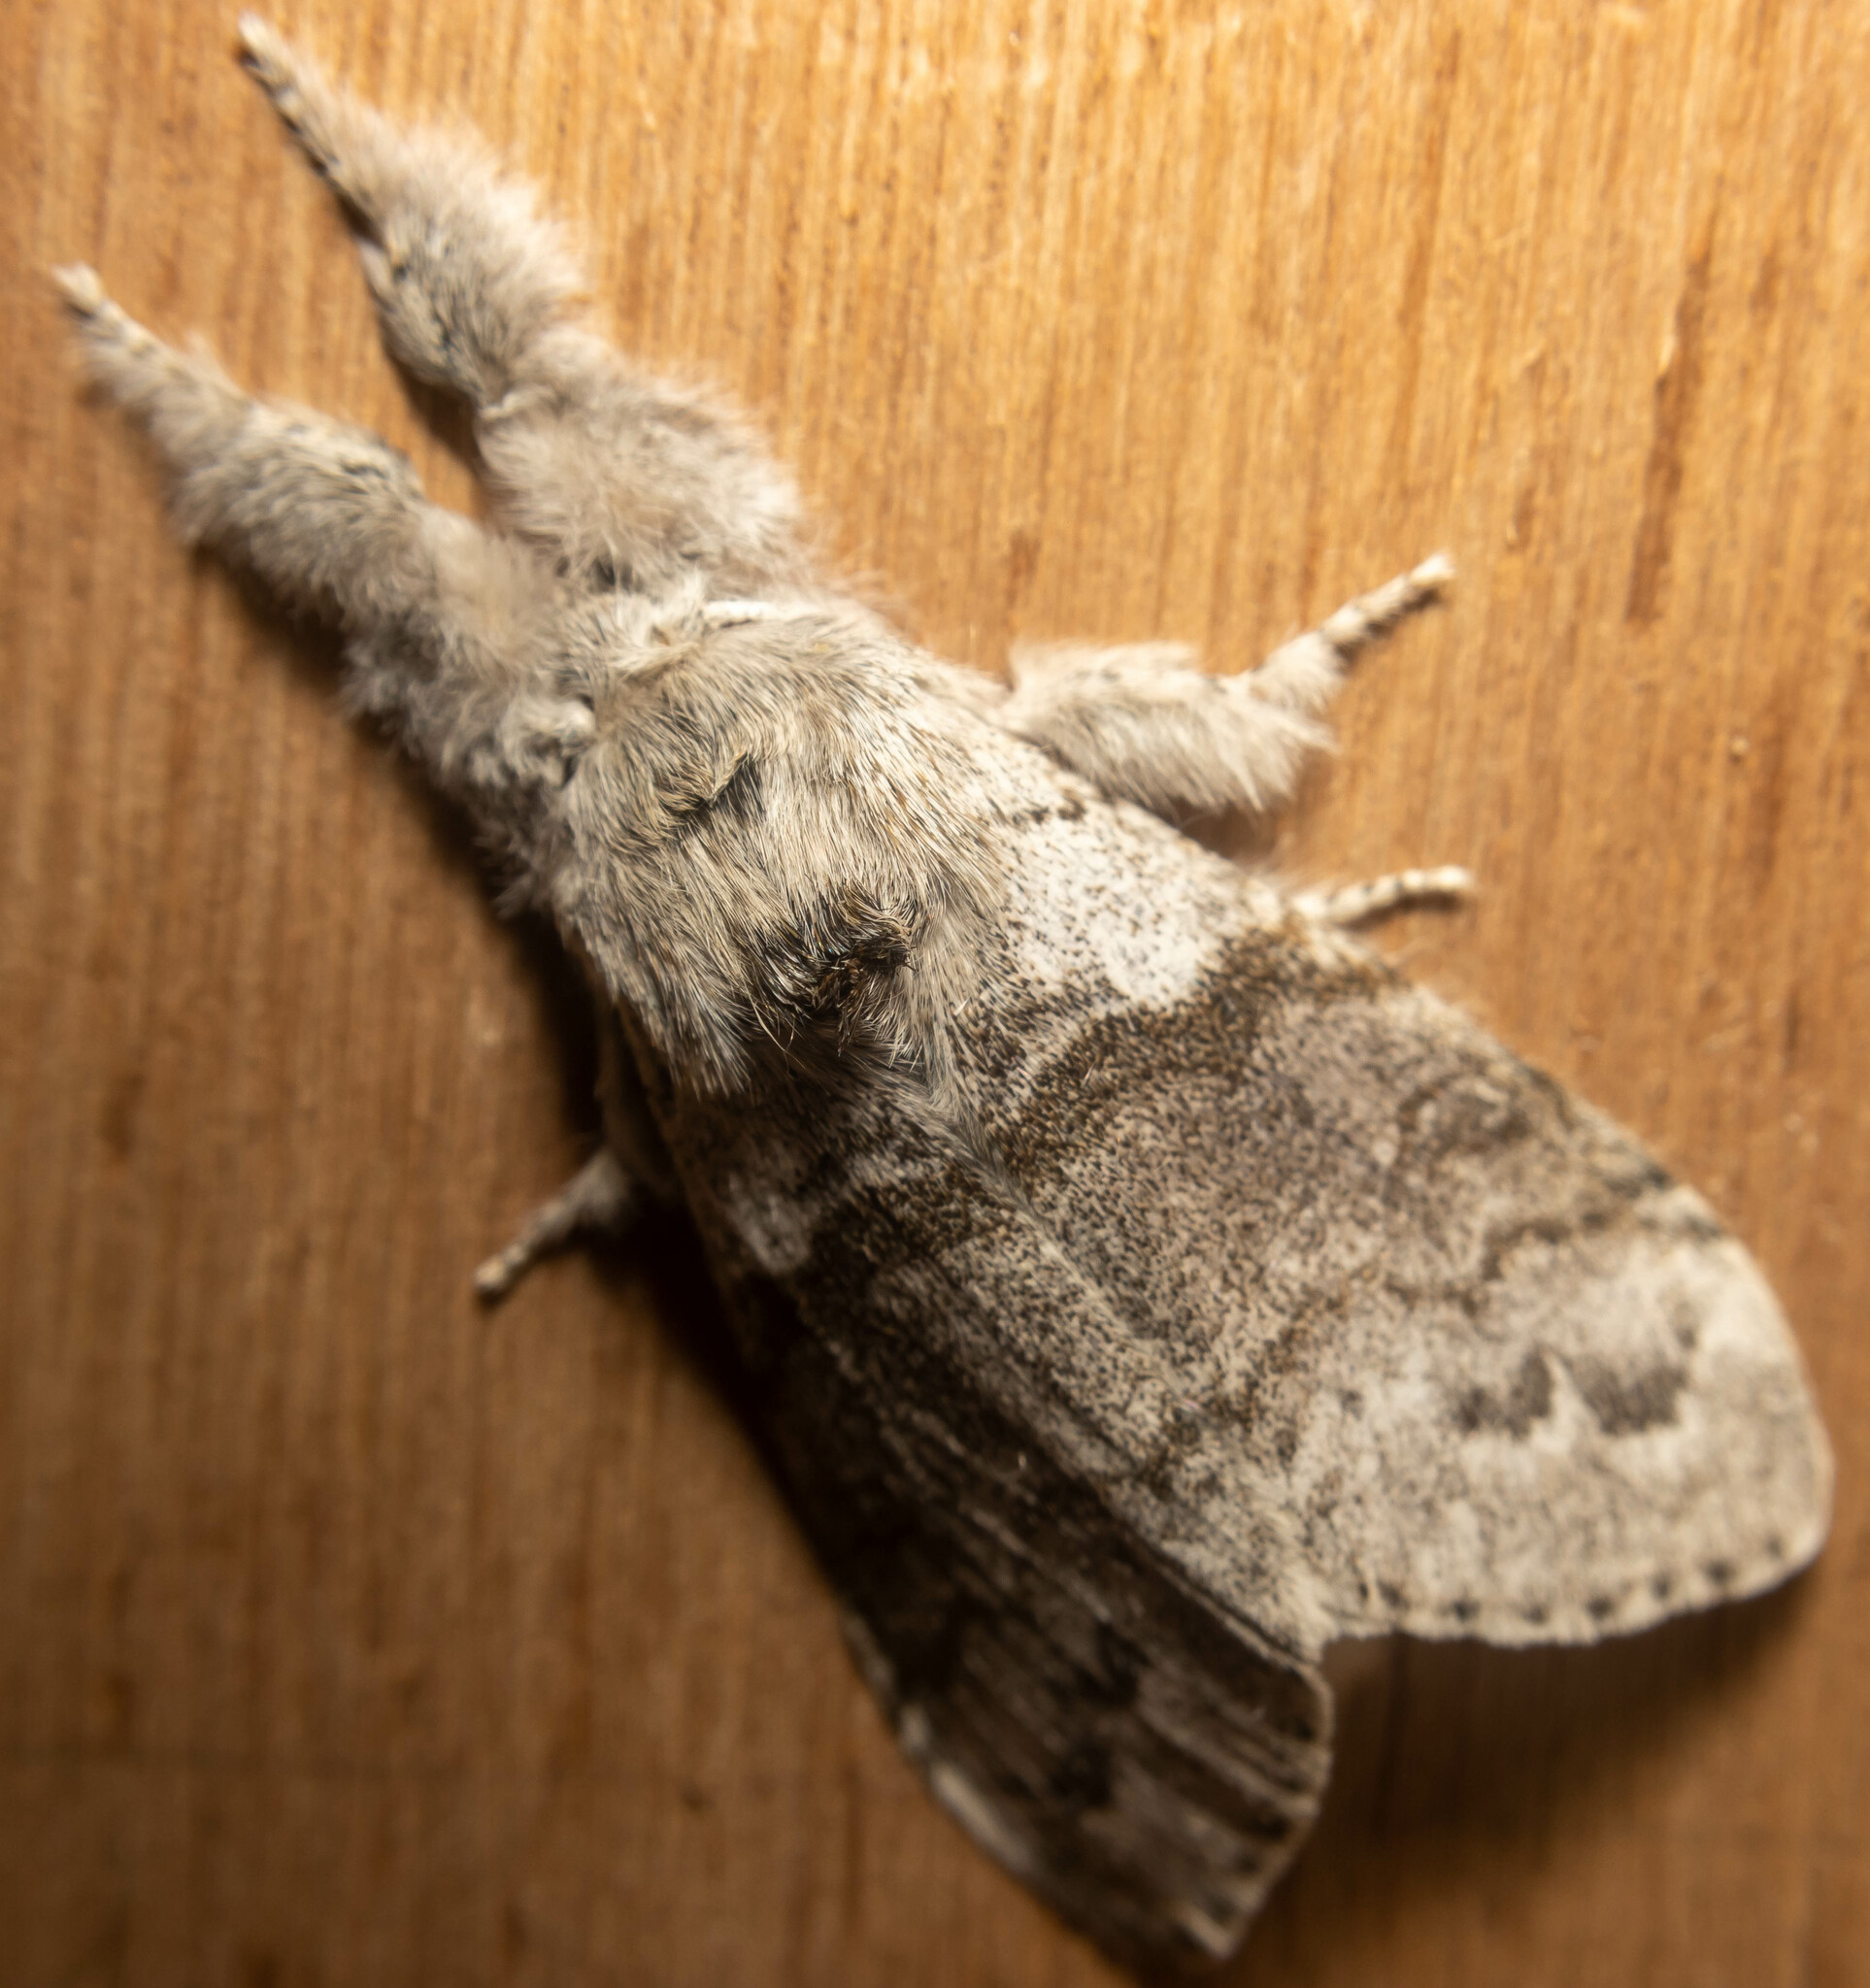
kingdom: Animalia
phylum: Arthropoda
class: Insecta
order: Lepidoptera
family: Erebidae
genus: Calliteara
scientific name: Calliteara pudibunda
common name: Pale tussock
